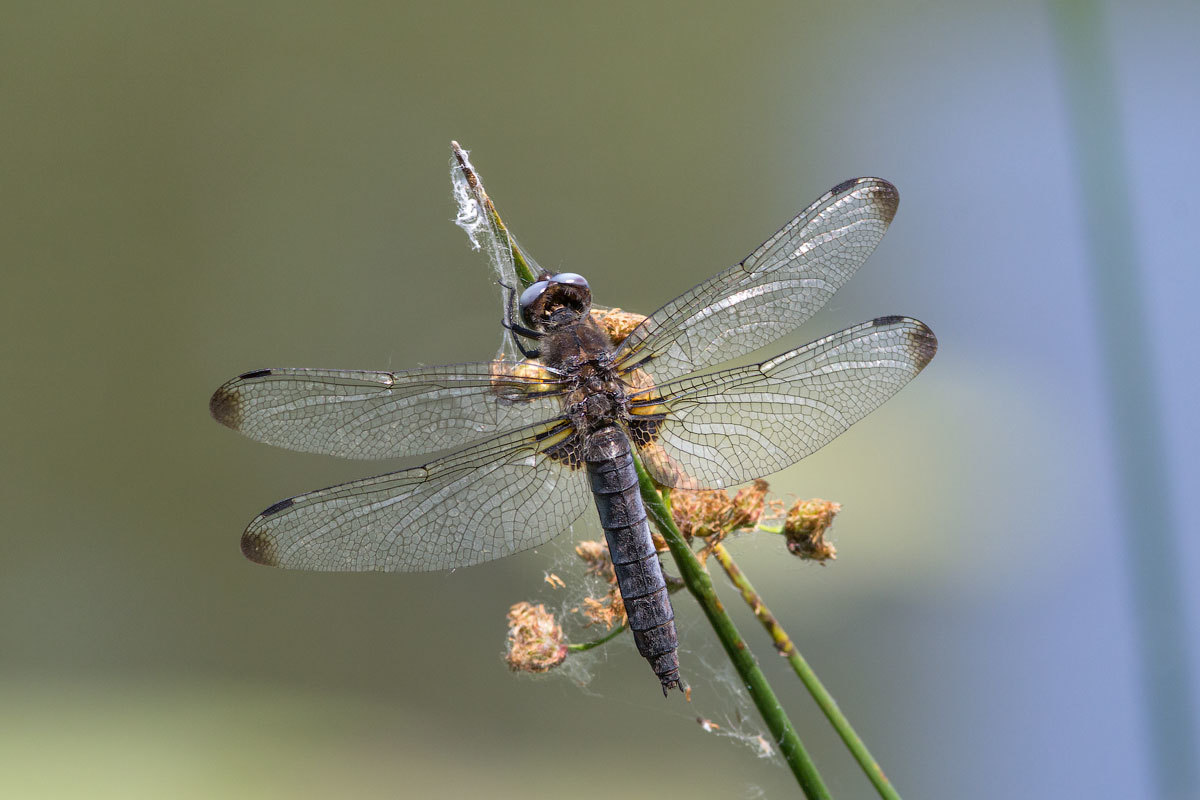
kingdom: Animalia
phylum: Arthropoda
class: Insecta
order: Odonata
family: Libellulidae
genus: Libellula
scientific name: Libellula fulva
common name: Blue chaser
